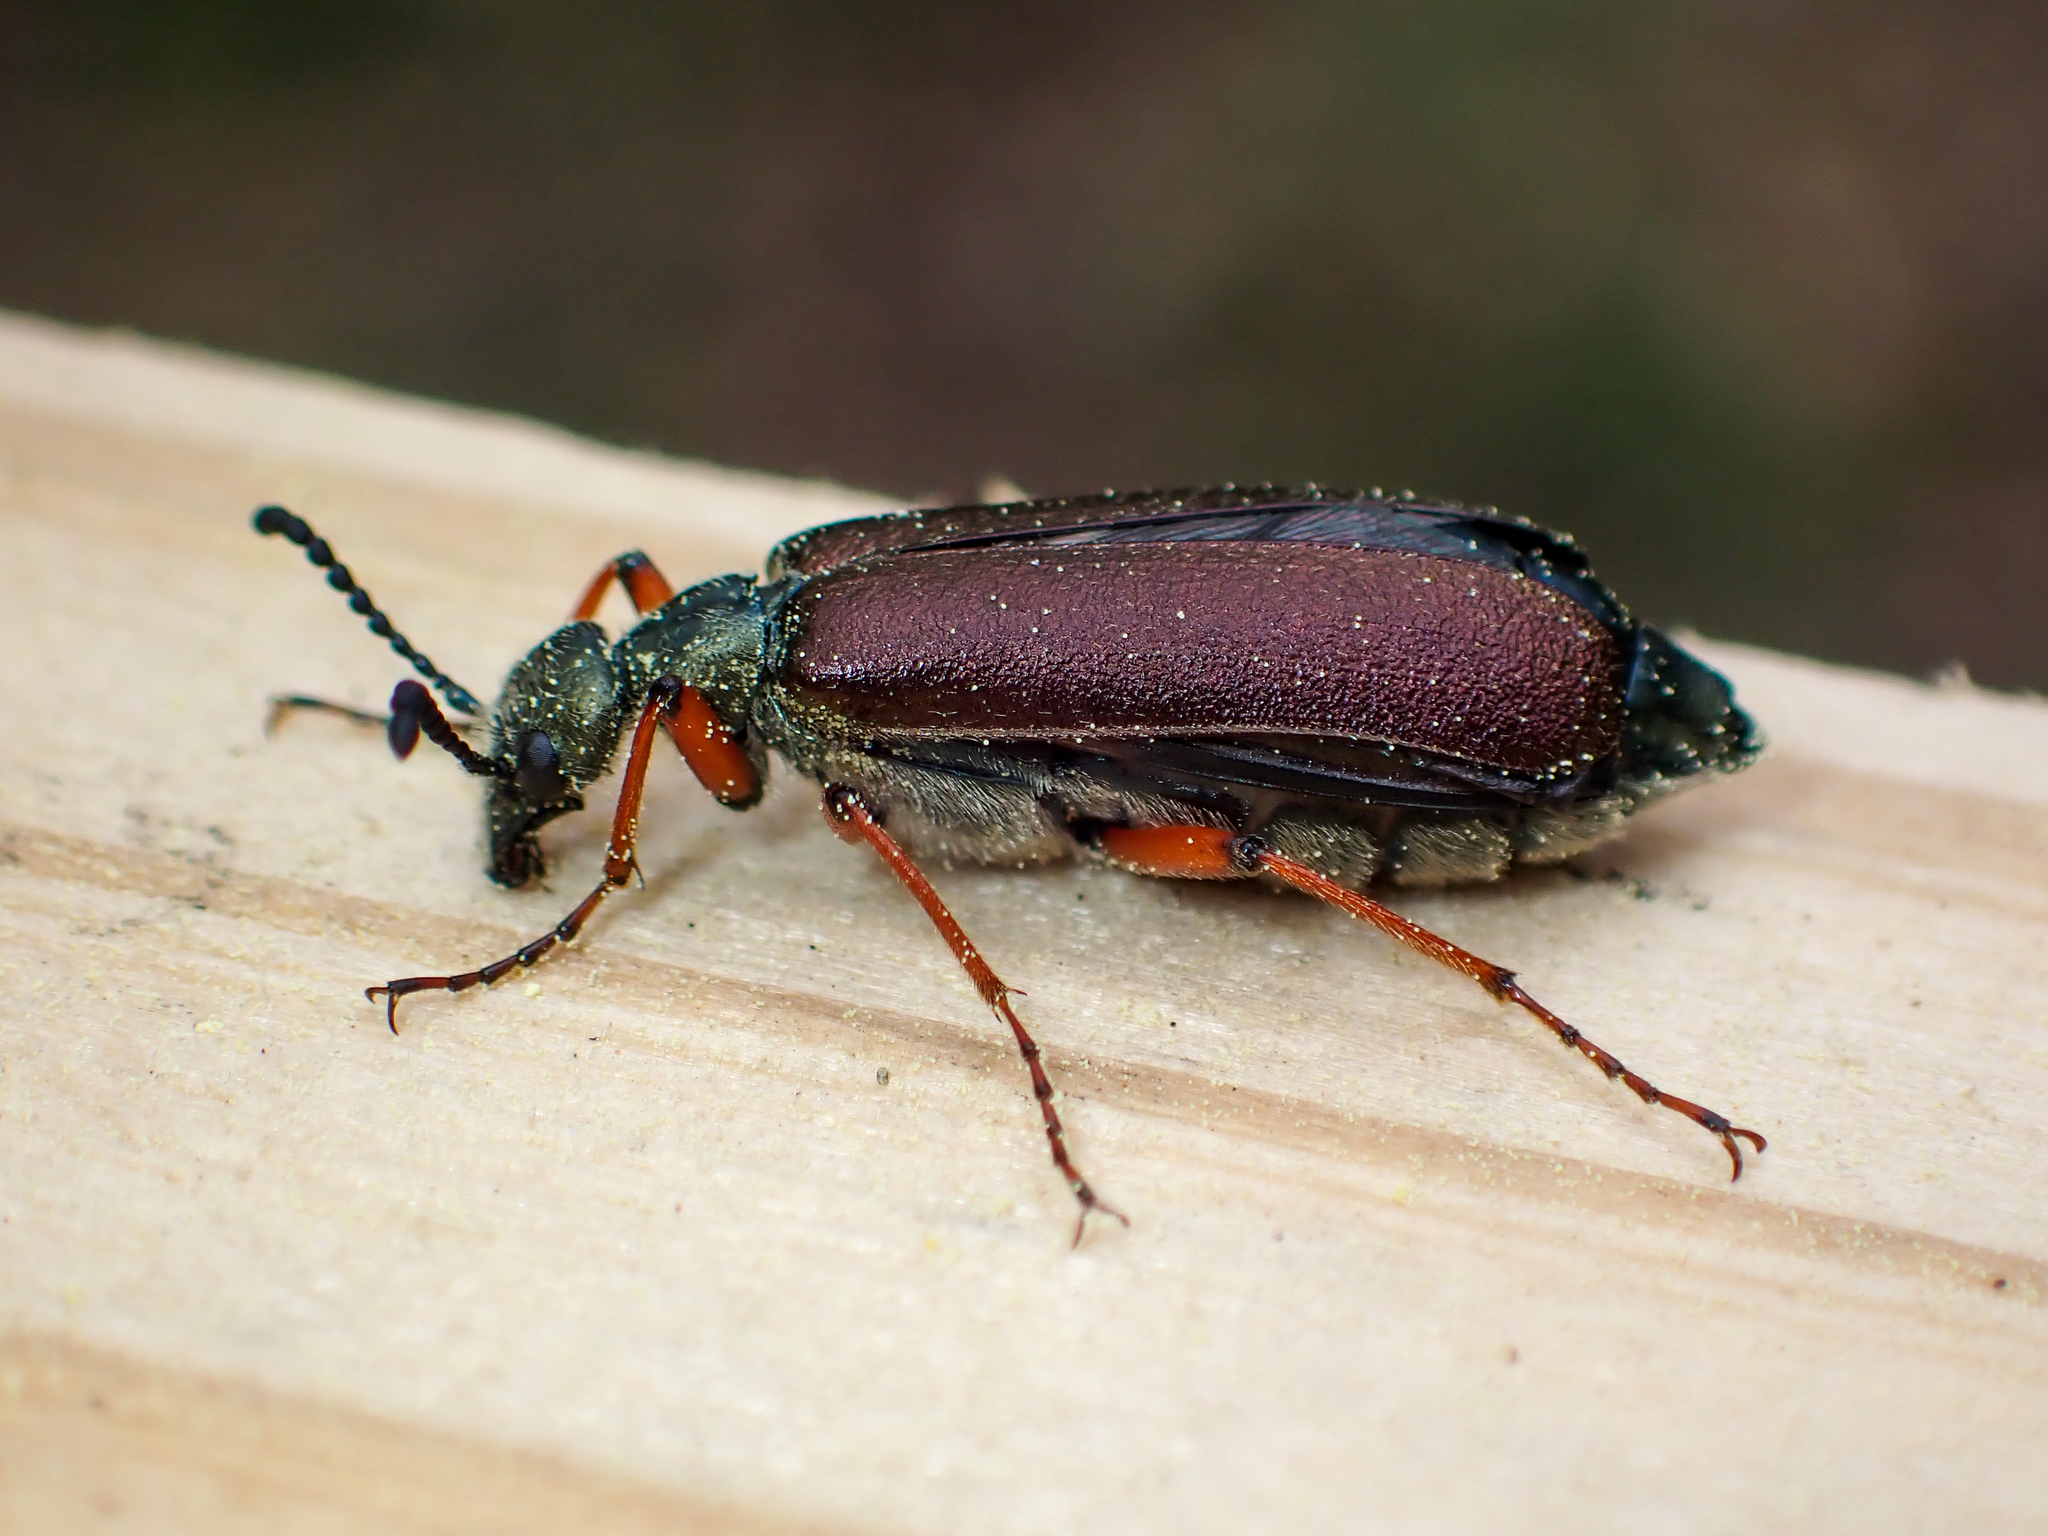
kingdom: Animalia
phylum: Arthropoda
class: Insecta
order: Coleoptera
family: Meloidae
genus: Lytta
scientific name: Lytta aenea
